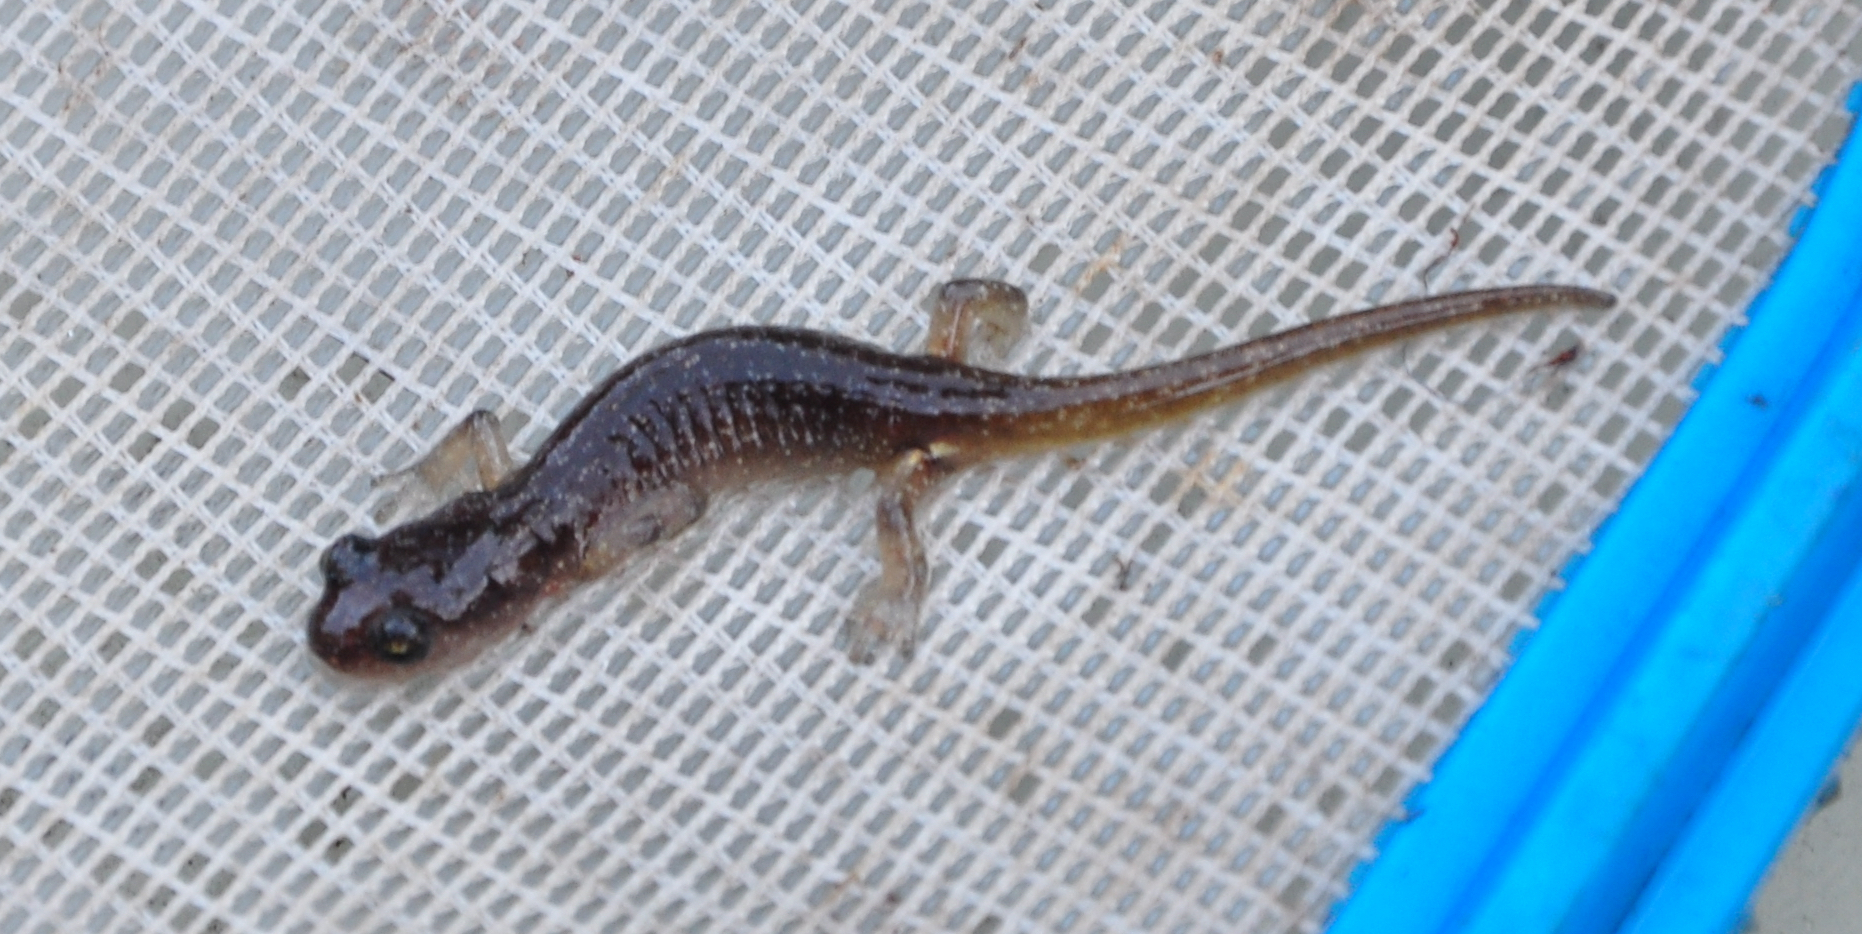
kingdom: Animalia
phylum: Chordata
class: Amphibia
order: Caudata
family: Plethodontidae
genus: Aneides
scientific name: Aneides lugubris
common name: Arboreal salamander
